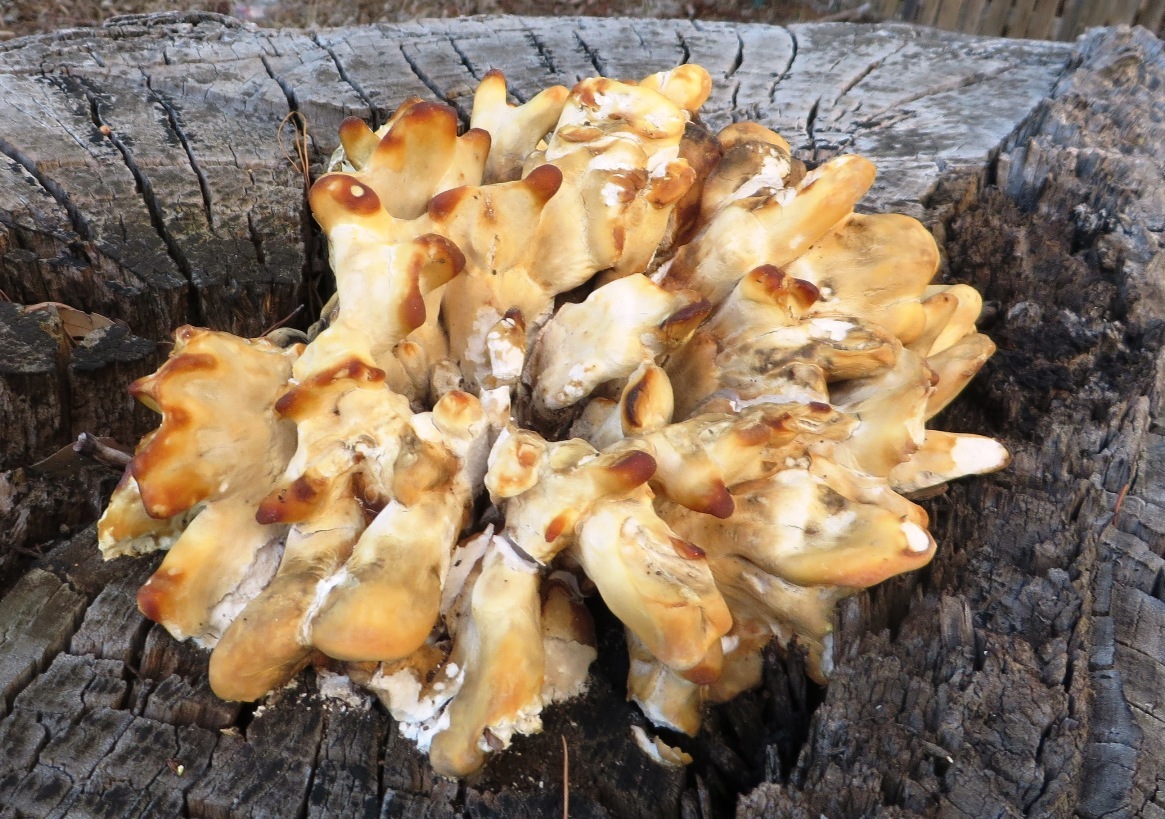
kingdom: Fungi
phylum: Basidiomycota
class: Agaricomycetes
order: Polyporales
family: Laetiporaceae
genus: Laetiporus
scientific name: Laetiporus sulphureus
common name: Chicken of the woods
